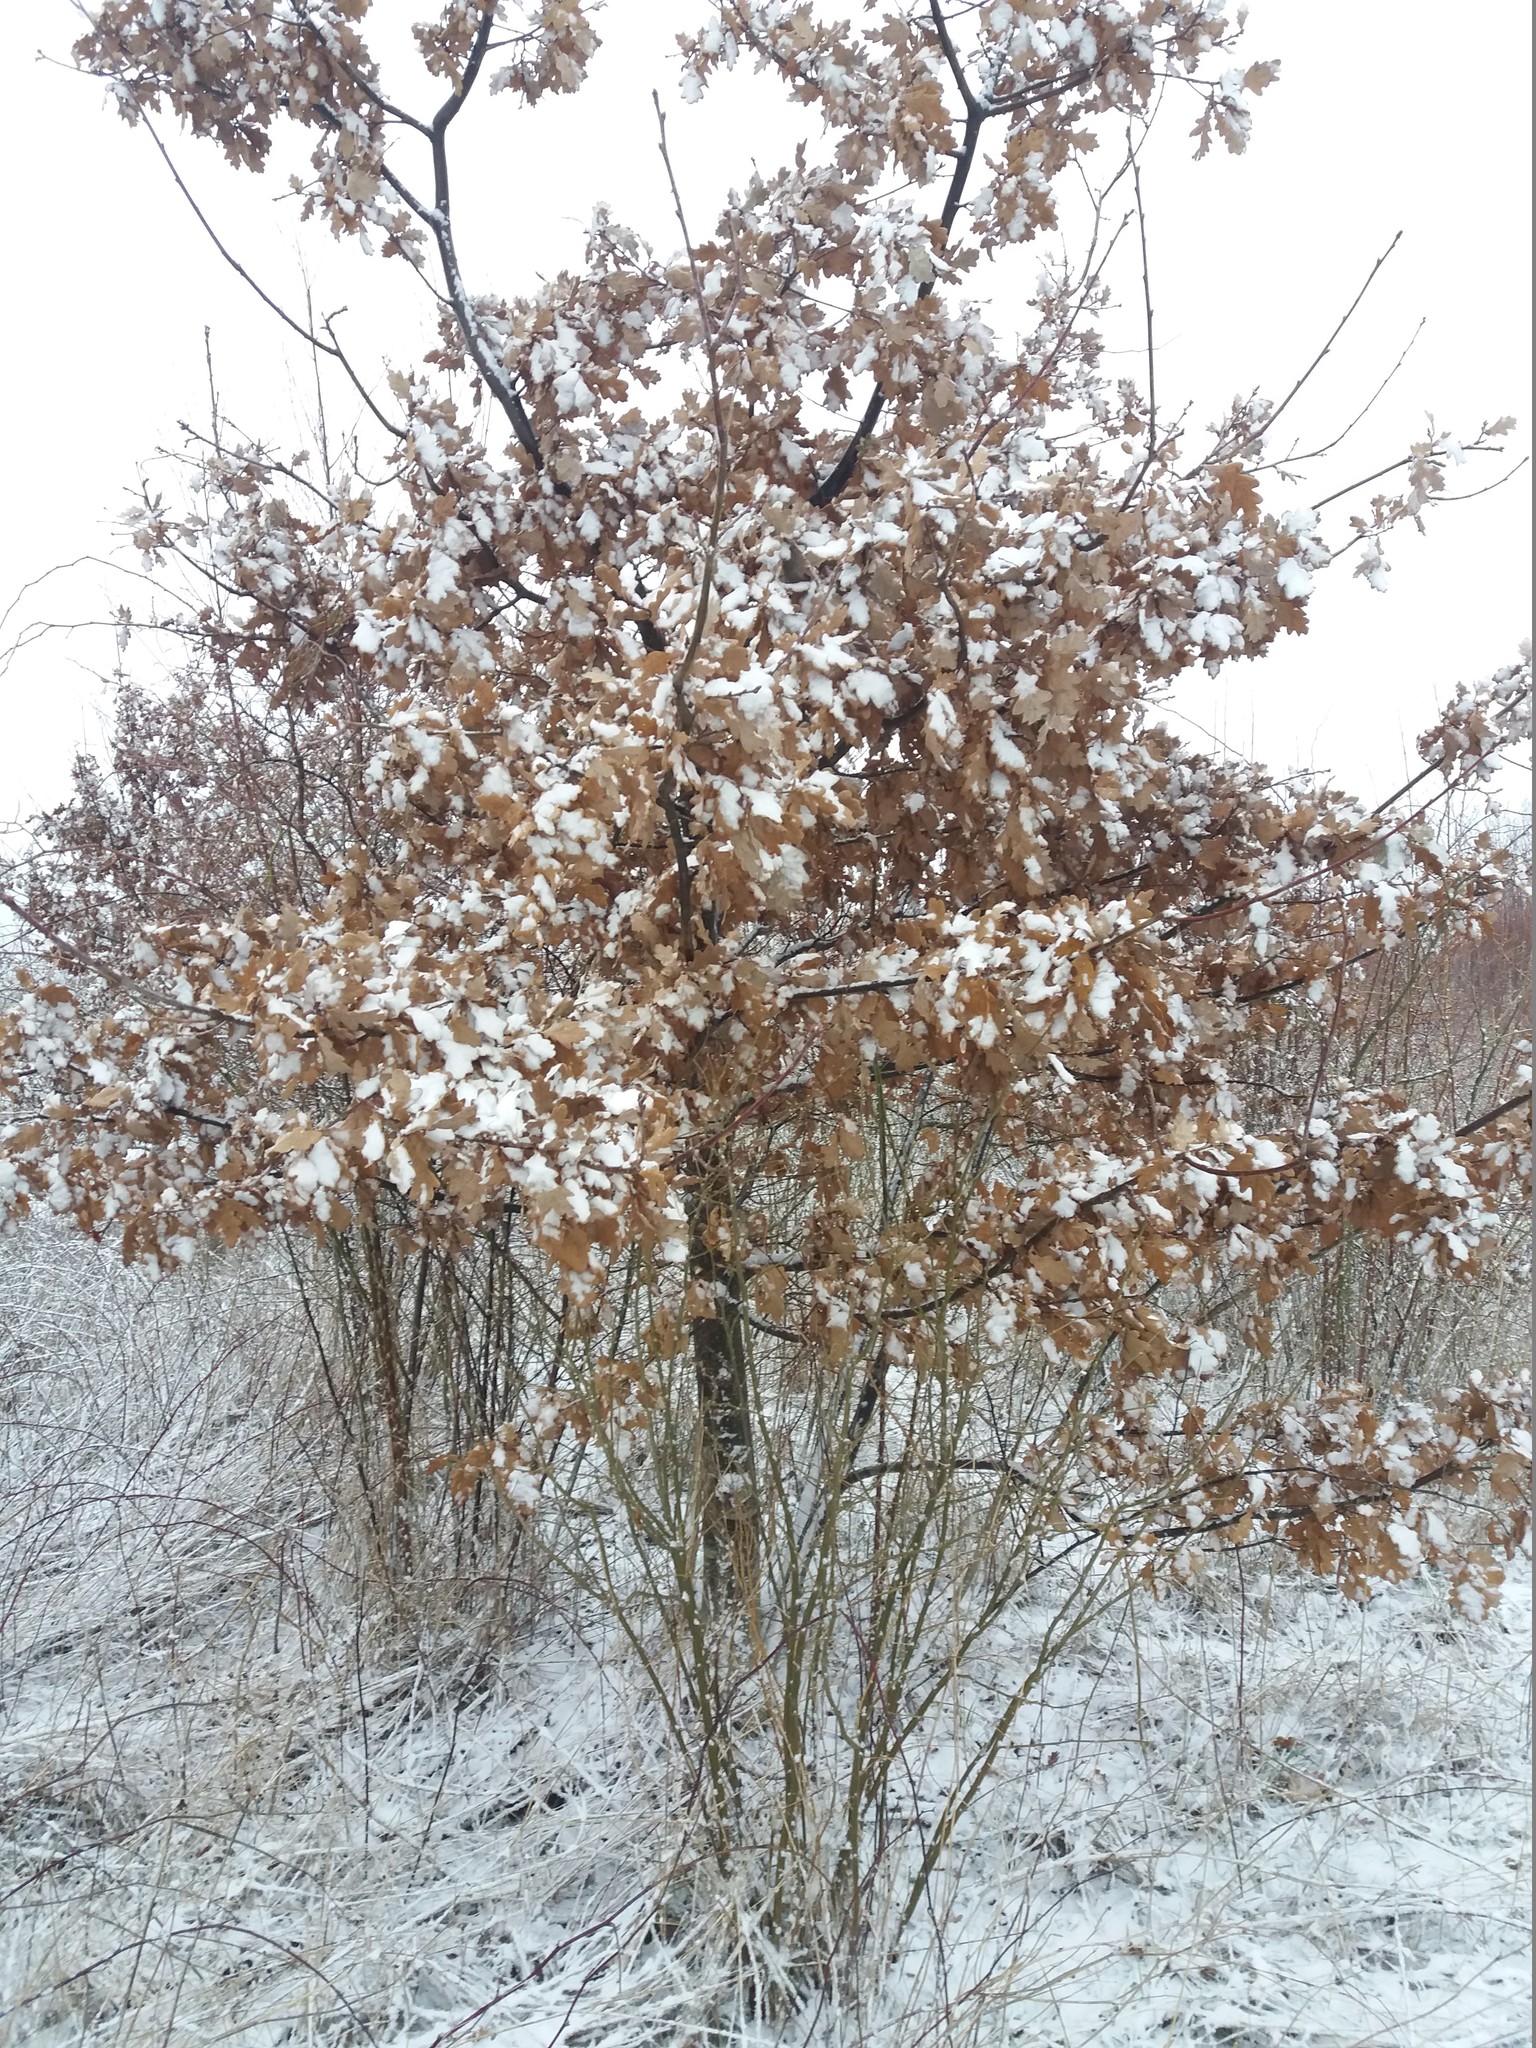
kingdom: Plantae
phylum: Tracheophyta
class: Magnoliopsida
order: Fagales
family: Fagaceae
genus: Quercus
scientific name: Quercus robur
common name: Pedunculate oak
